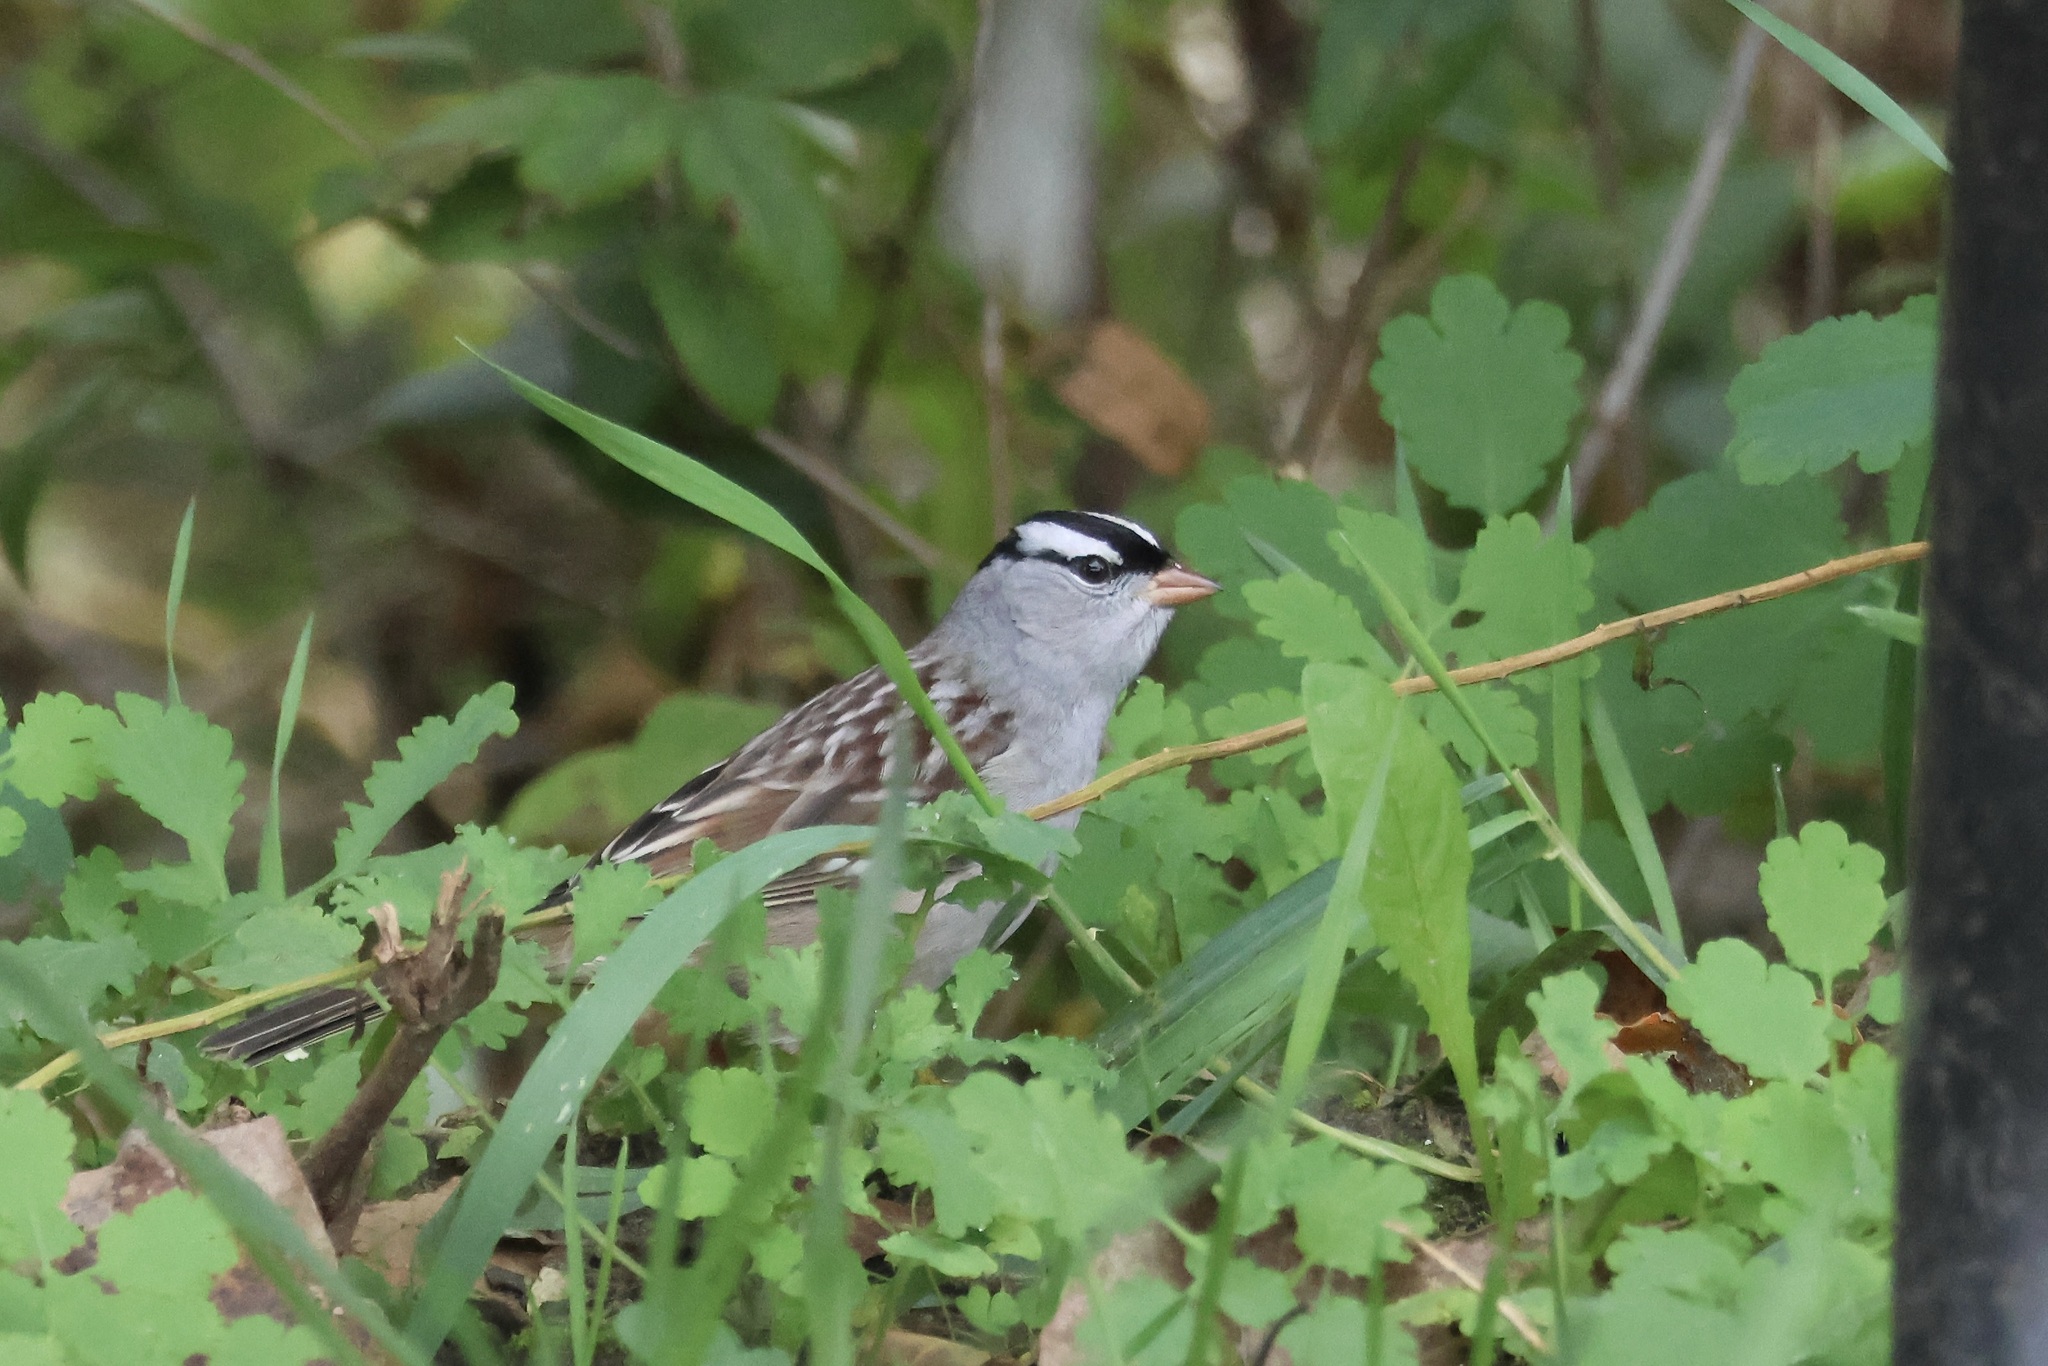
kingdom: Animalia
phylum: Chordata
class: Aves
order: Passeriformes
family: Passerellidae
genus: Zonotrichia
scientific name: Zonotrichia leucophrys
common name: White-crowned sparrow
